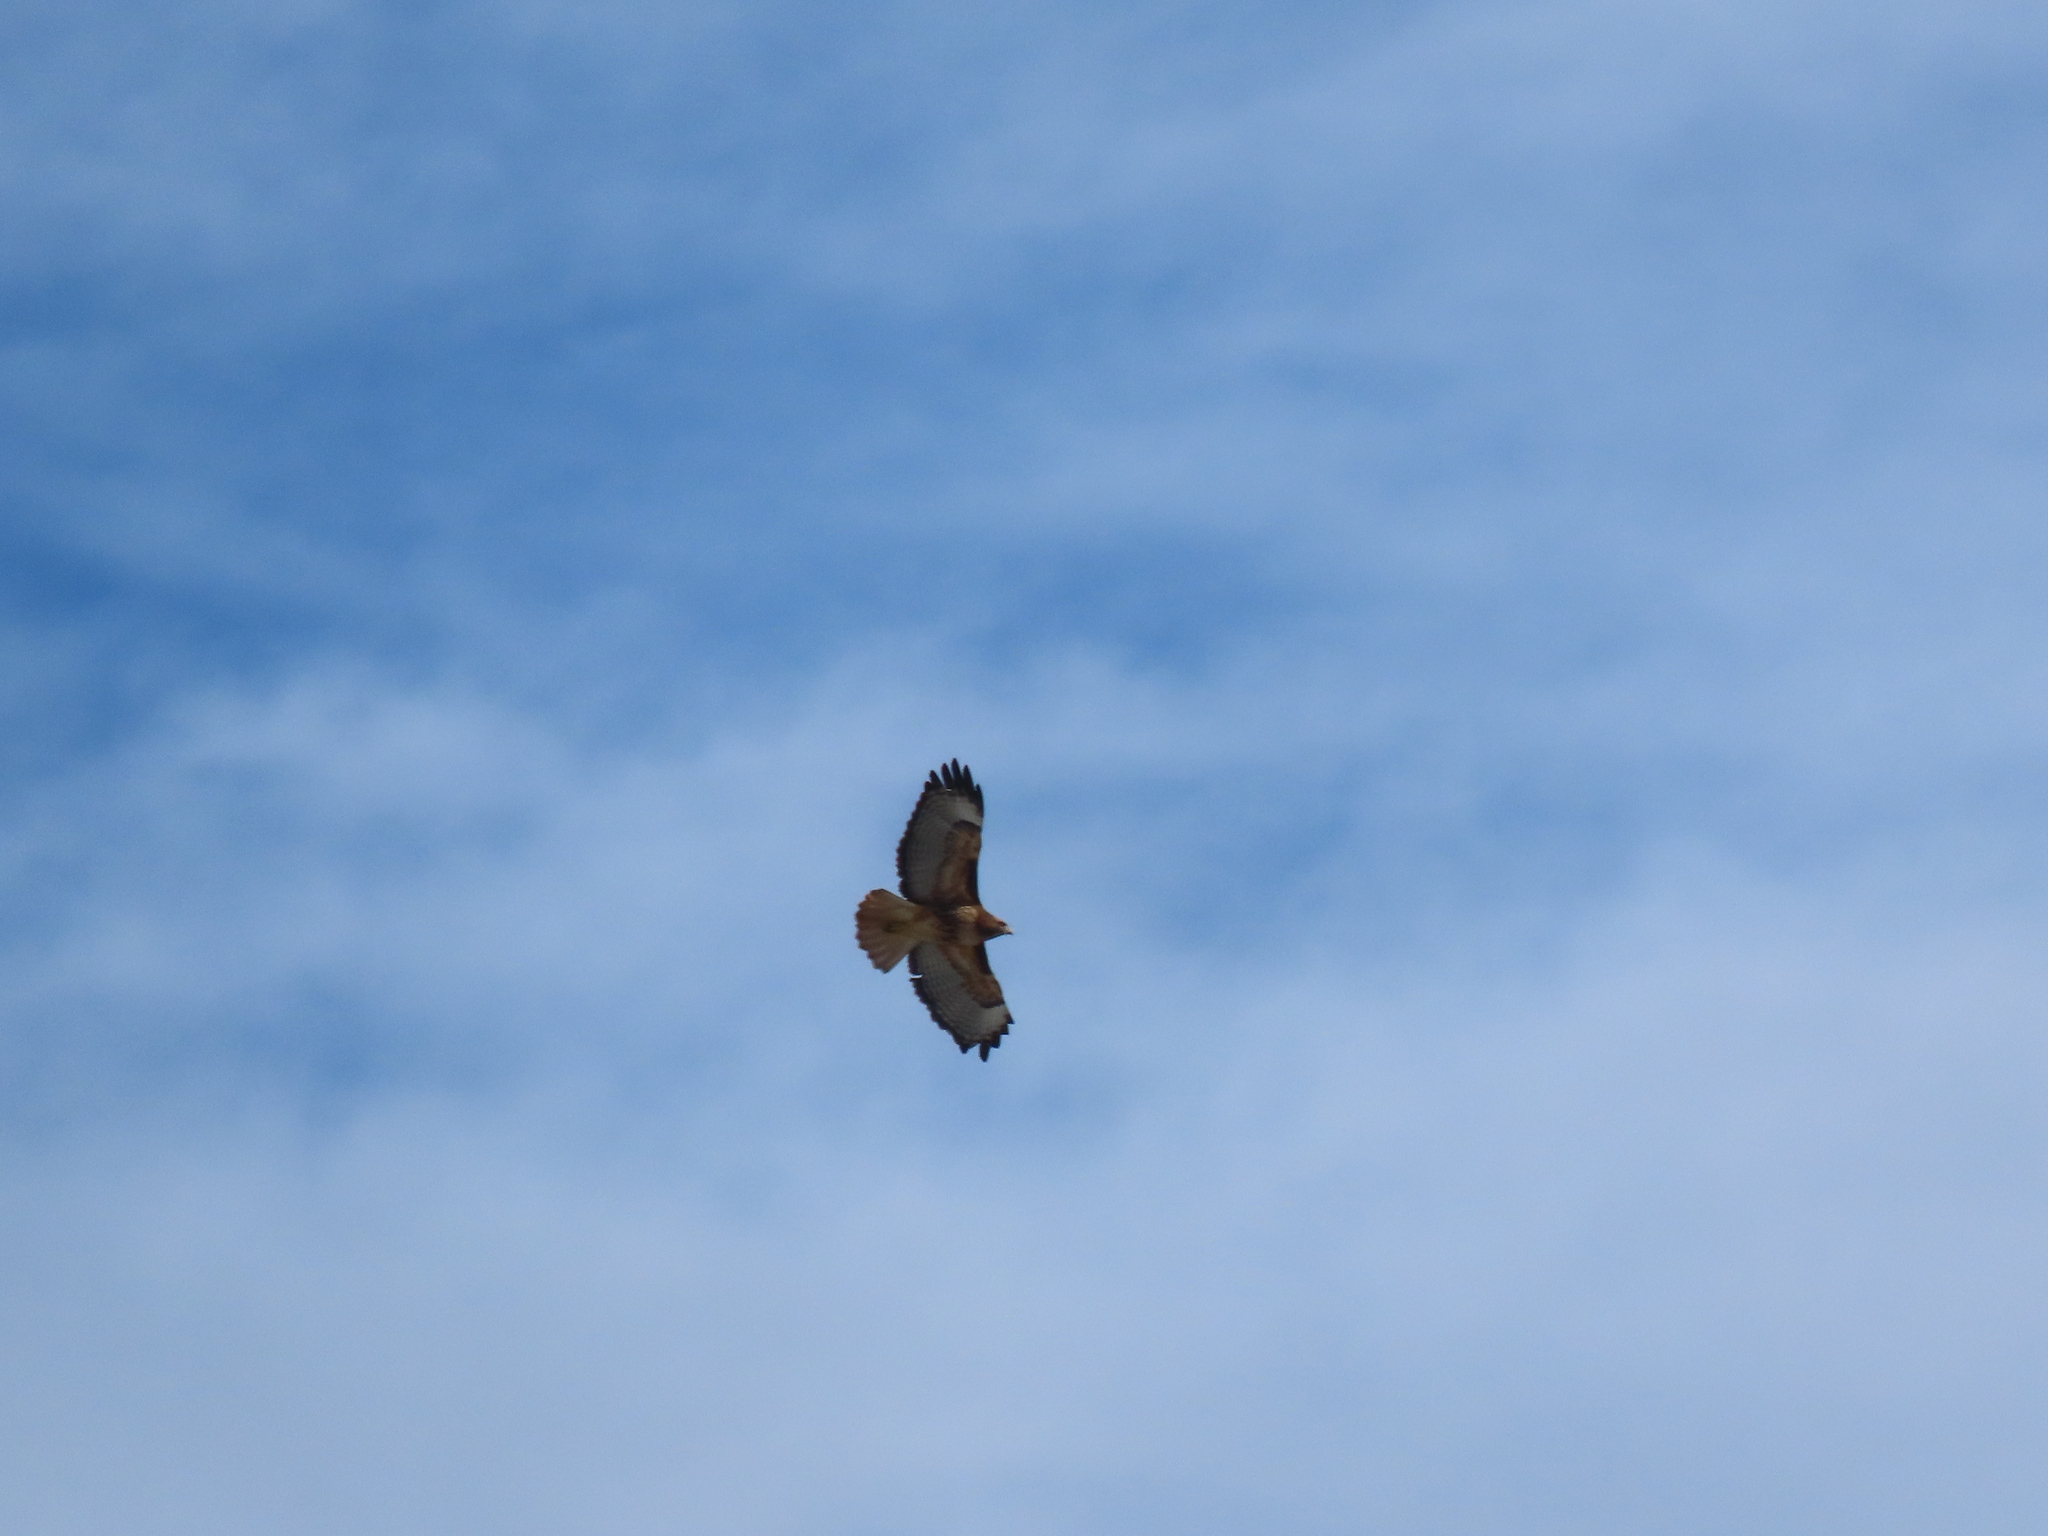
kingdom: Animalia
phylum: Chordata
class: Aves
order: Accipitriformes
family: Accipitridae
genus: Buteo
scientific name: Buteo jamaicensis
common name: Red-tailed hawk
